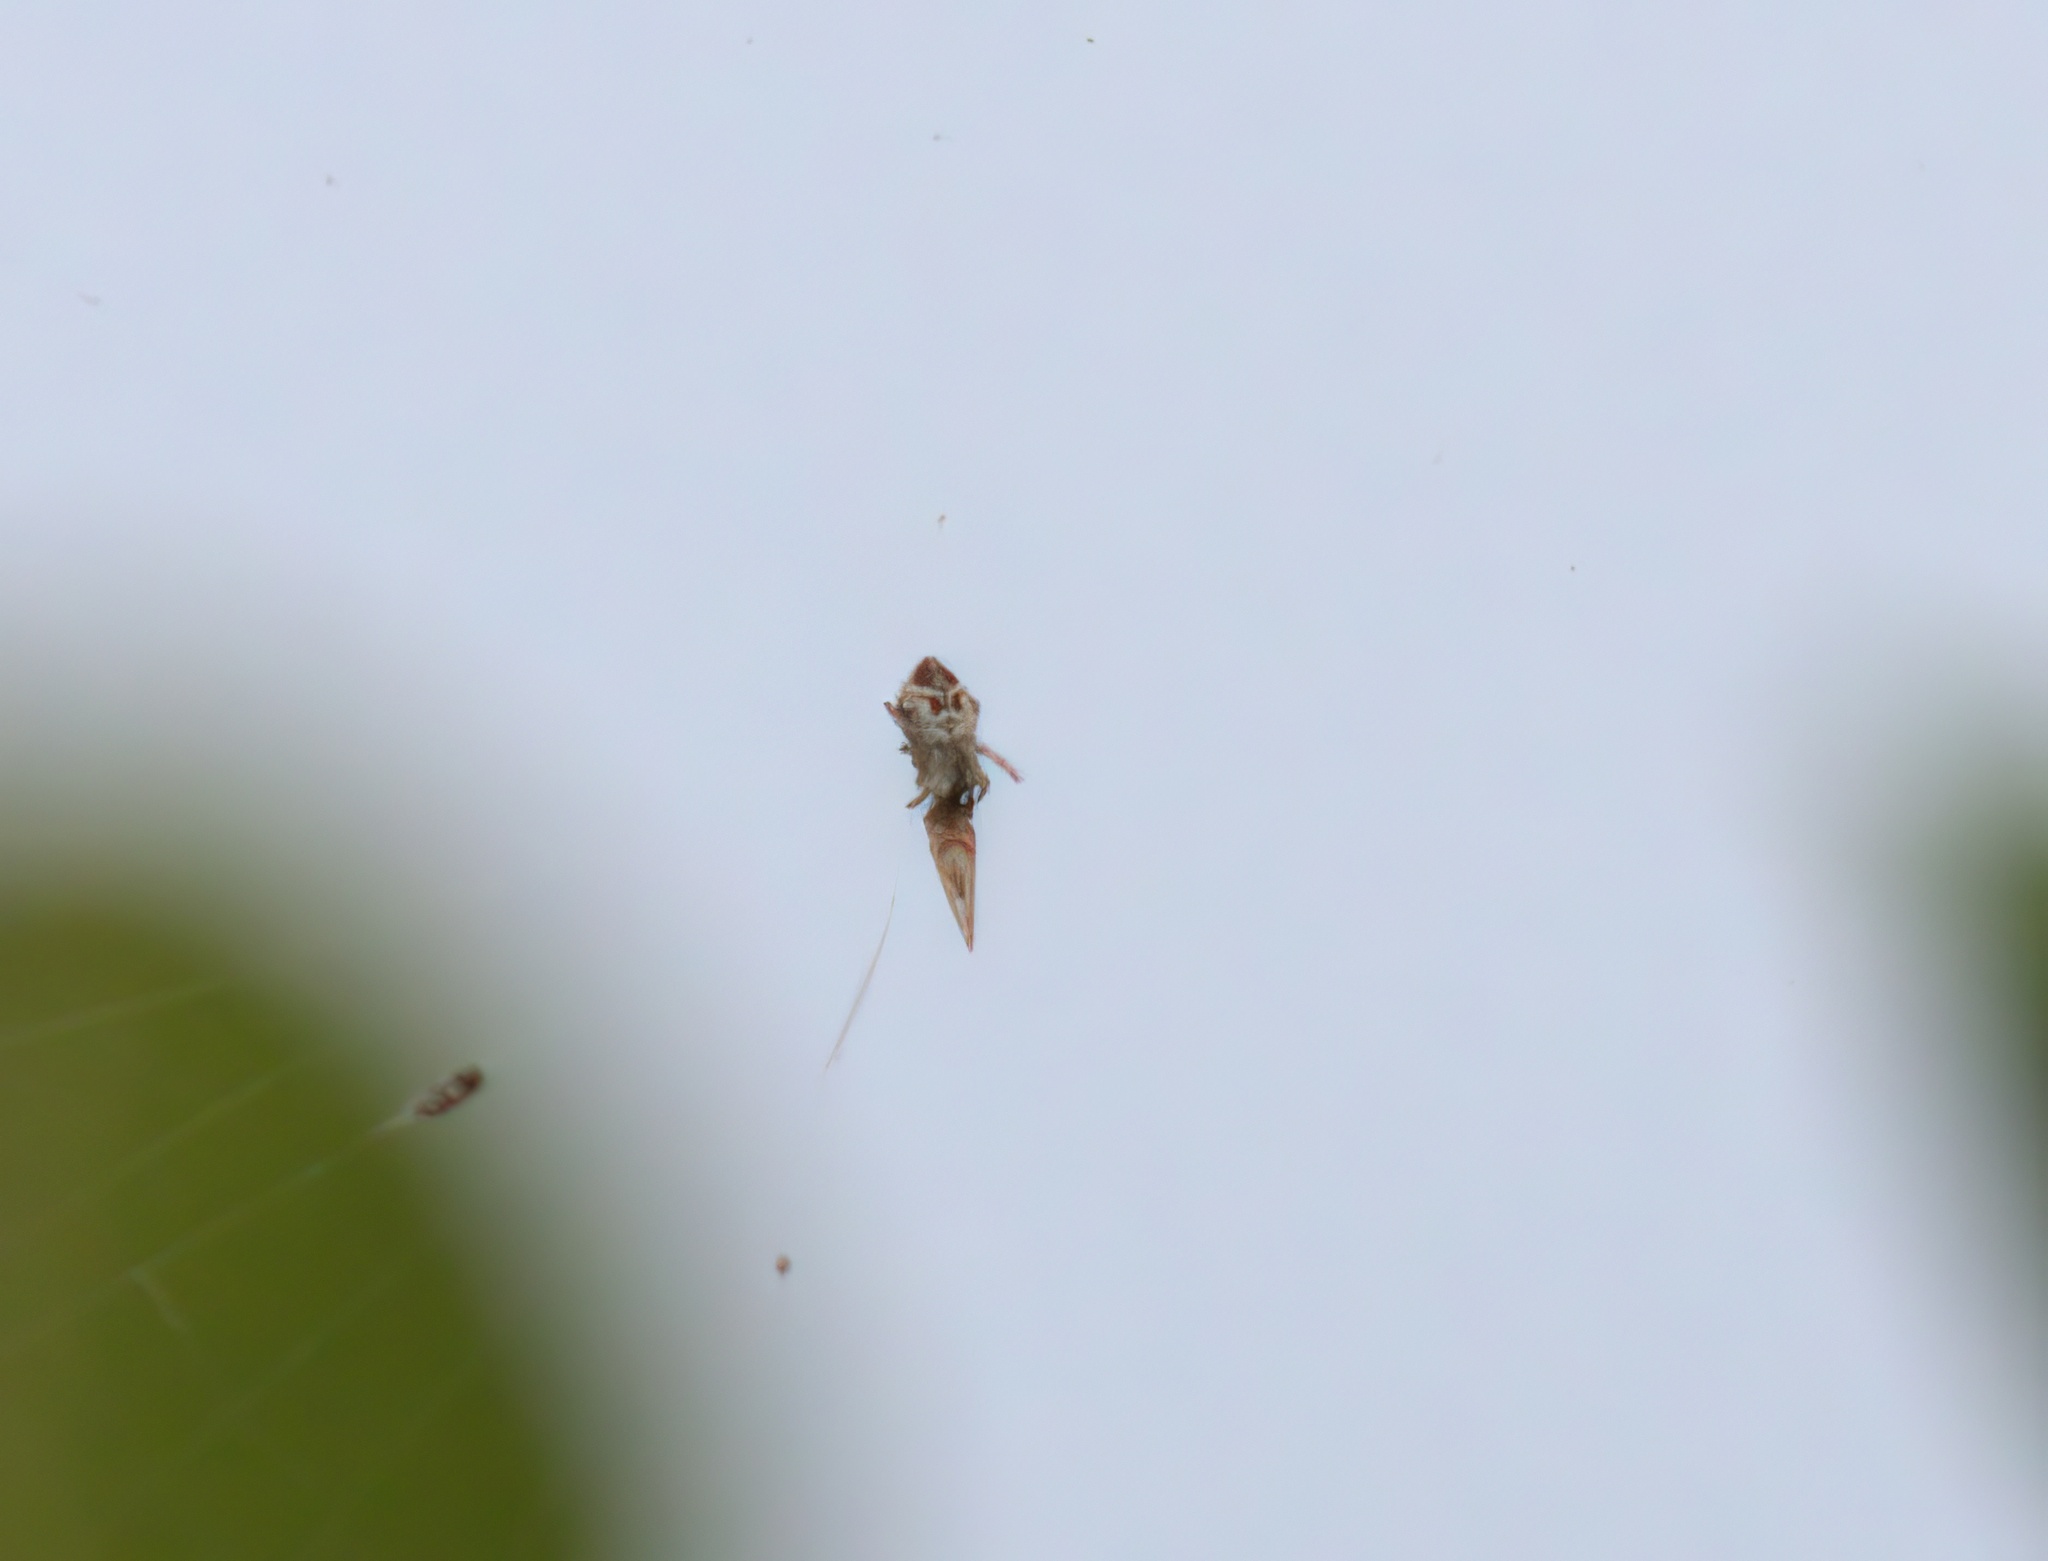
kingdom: Animalia
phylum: Arthropoda
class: Arachnida
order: Araneae
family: Araneidae
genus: Cyclosa
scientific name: Cyclosa turbinata
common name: Orb weavers
